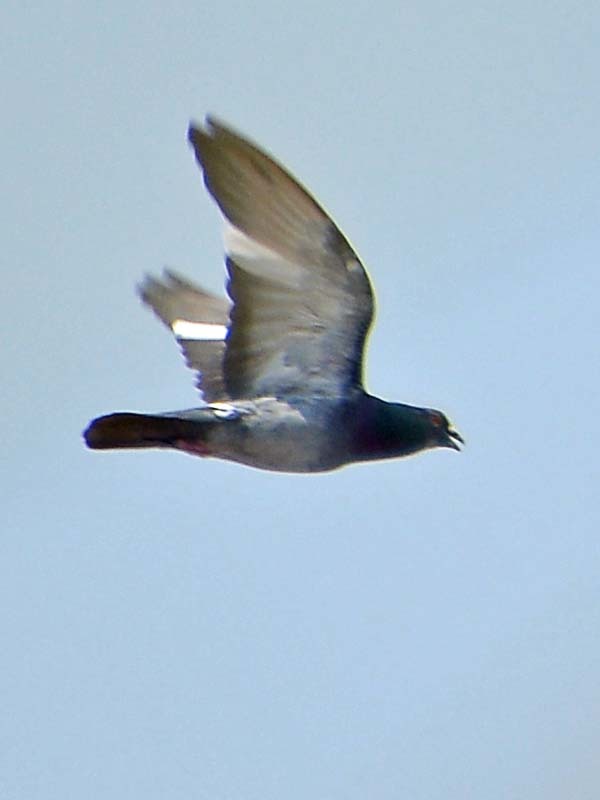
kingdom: Animalia
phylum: Chordata
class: Aves
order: Columbiformes
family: Columbidae
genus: Columba
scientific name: Columba livia
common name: Rock pigeon
